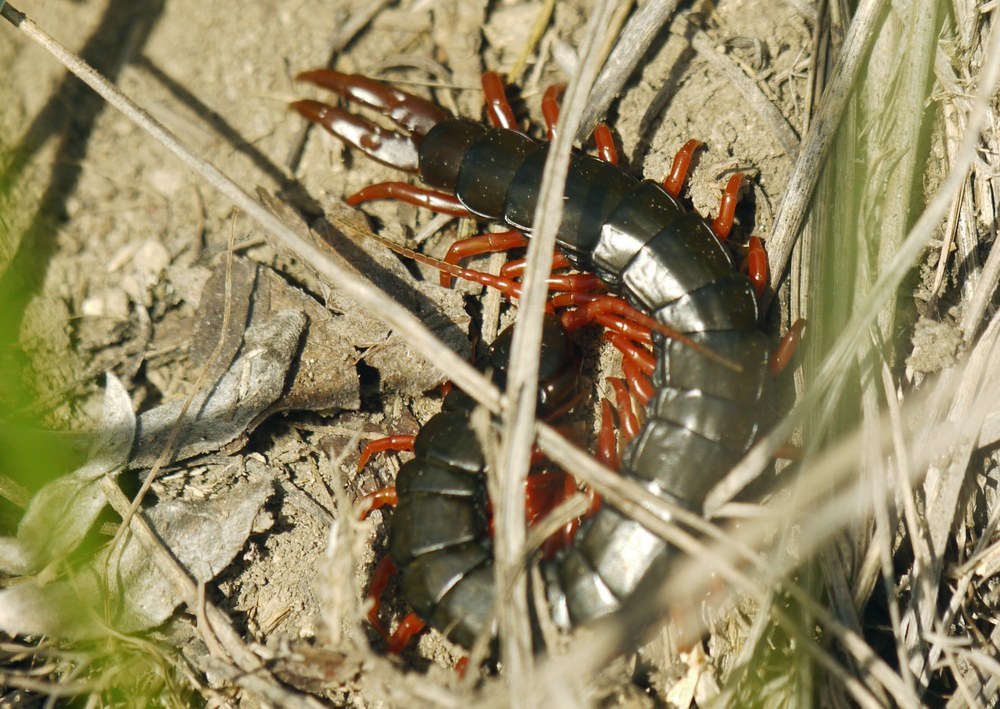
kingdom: Animalia
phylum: Arthropoda
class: Chilopoda
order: Scolopendromorpha
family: Scolopendridae
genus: Scolopendra
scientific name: Scolopendra cingulata
